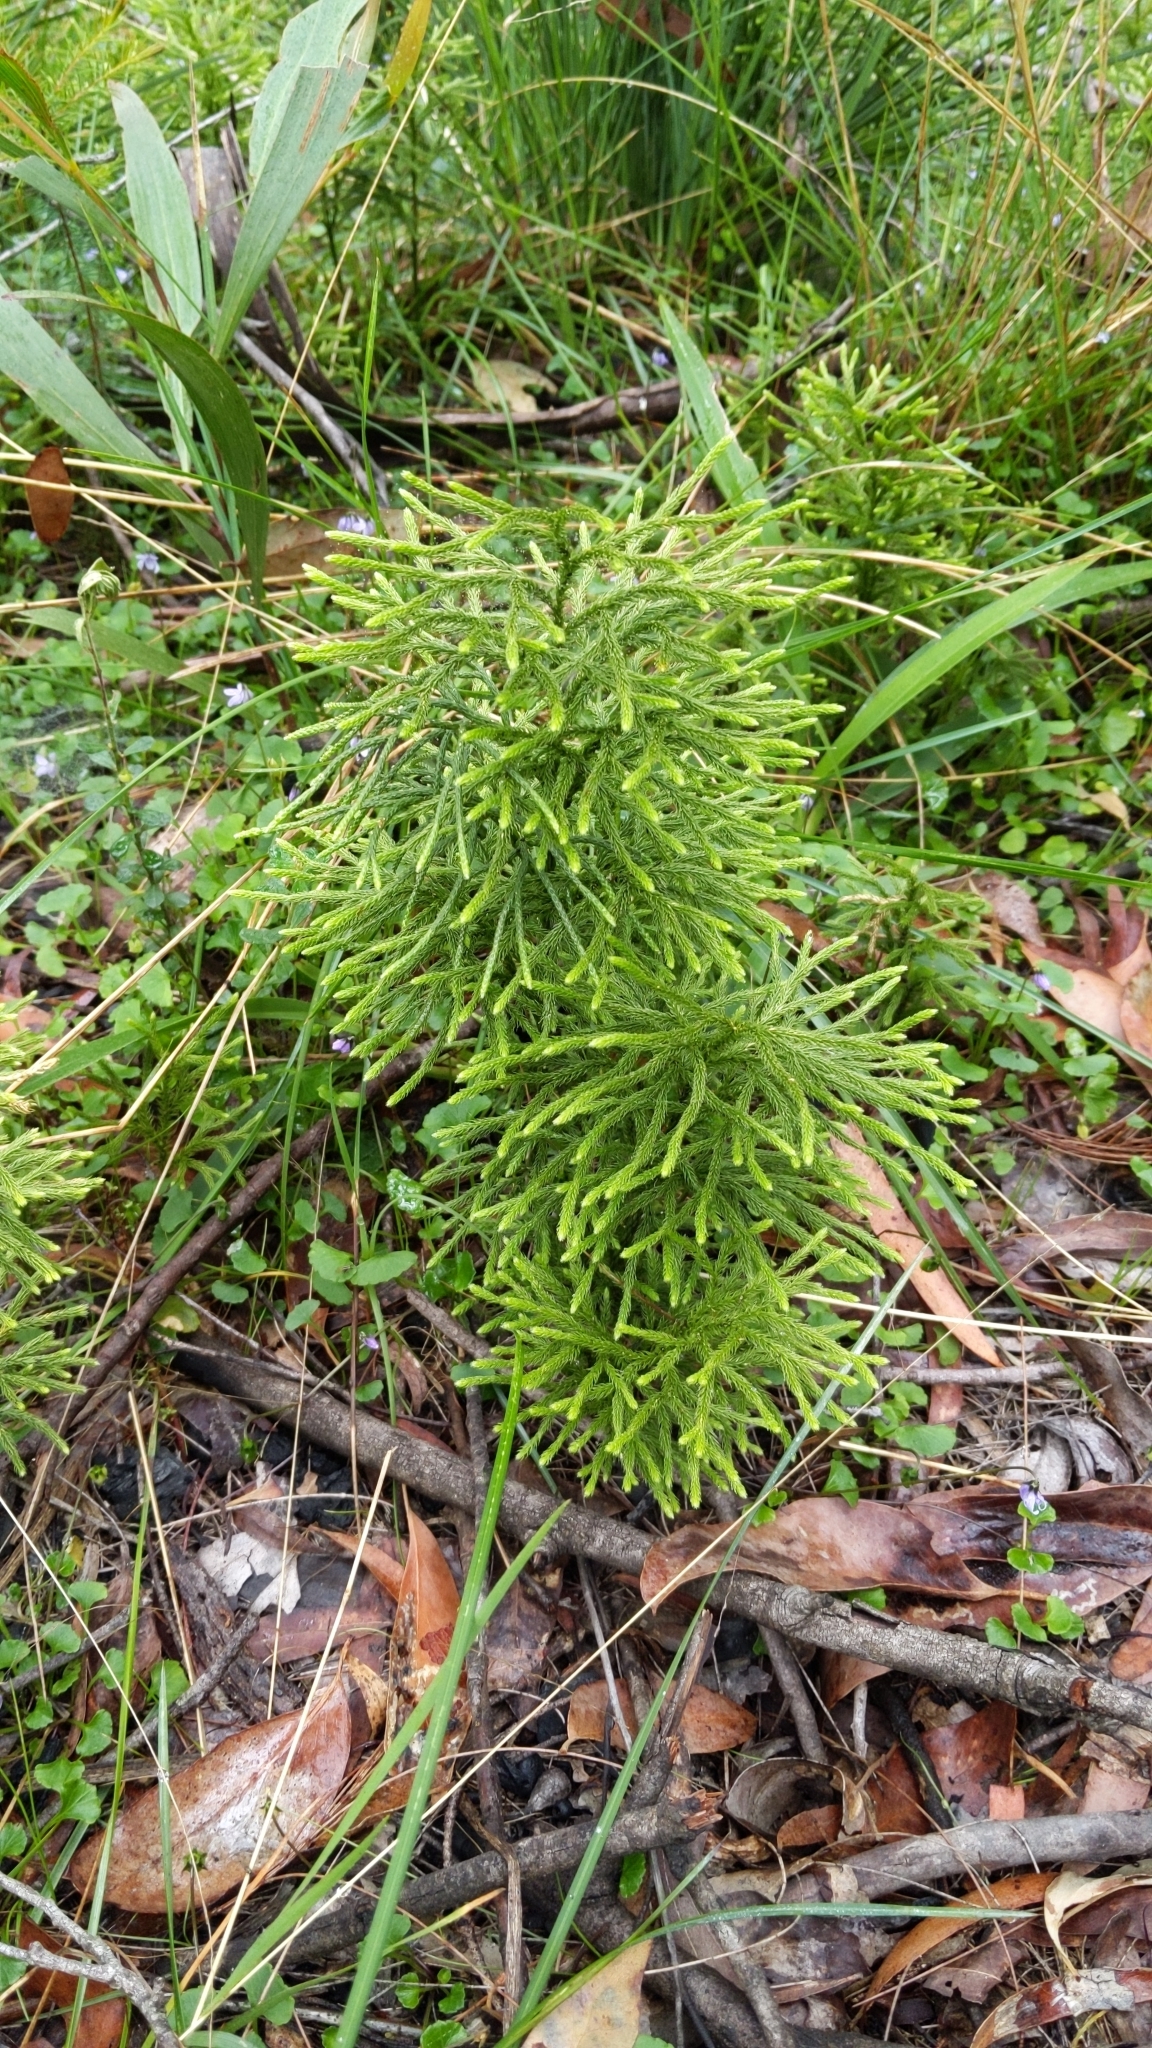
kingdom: Plantae
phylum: Tracheophyta
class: Lycopodiopsida
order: Lycopodiales
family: Lycopodiaceae
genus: Pseudolycopodium
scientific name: Pseudolycopodium densum
